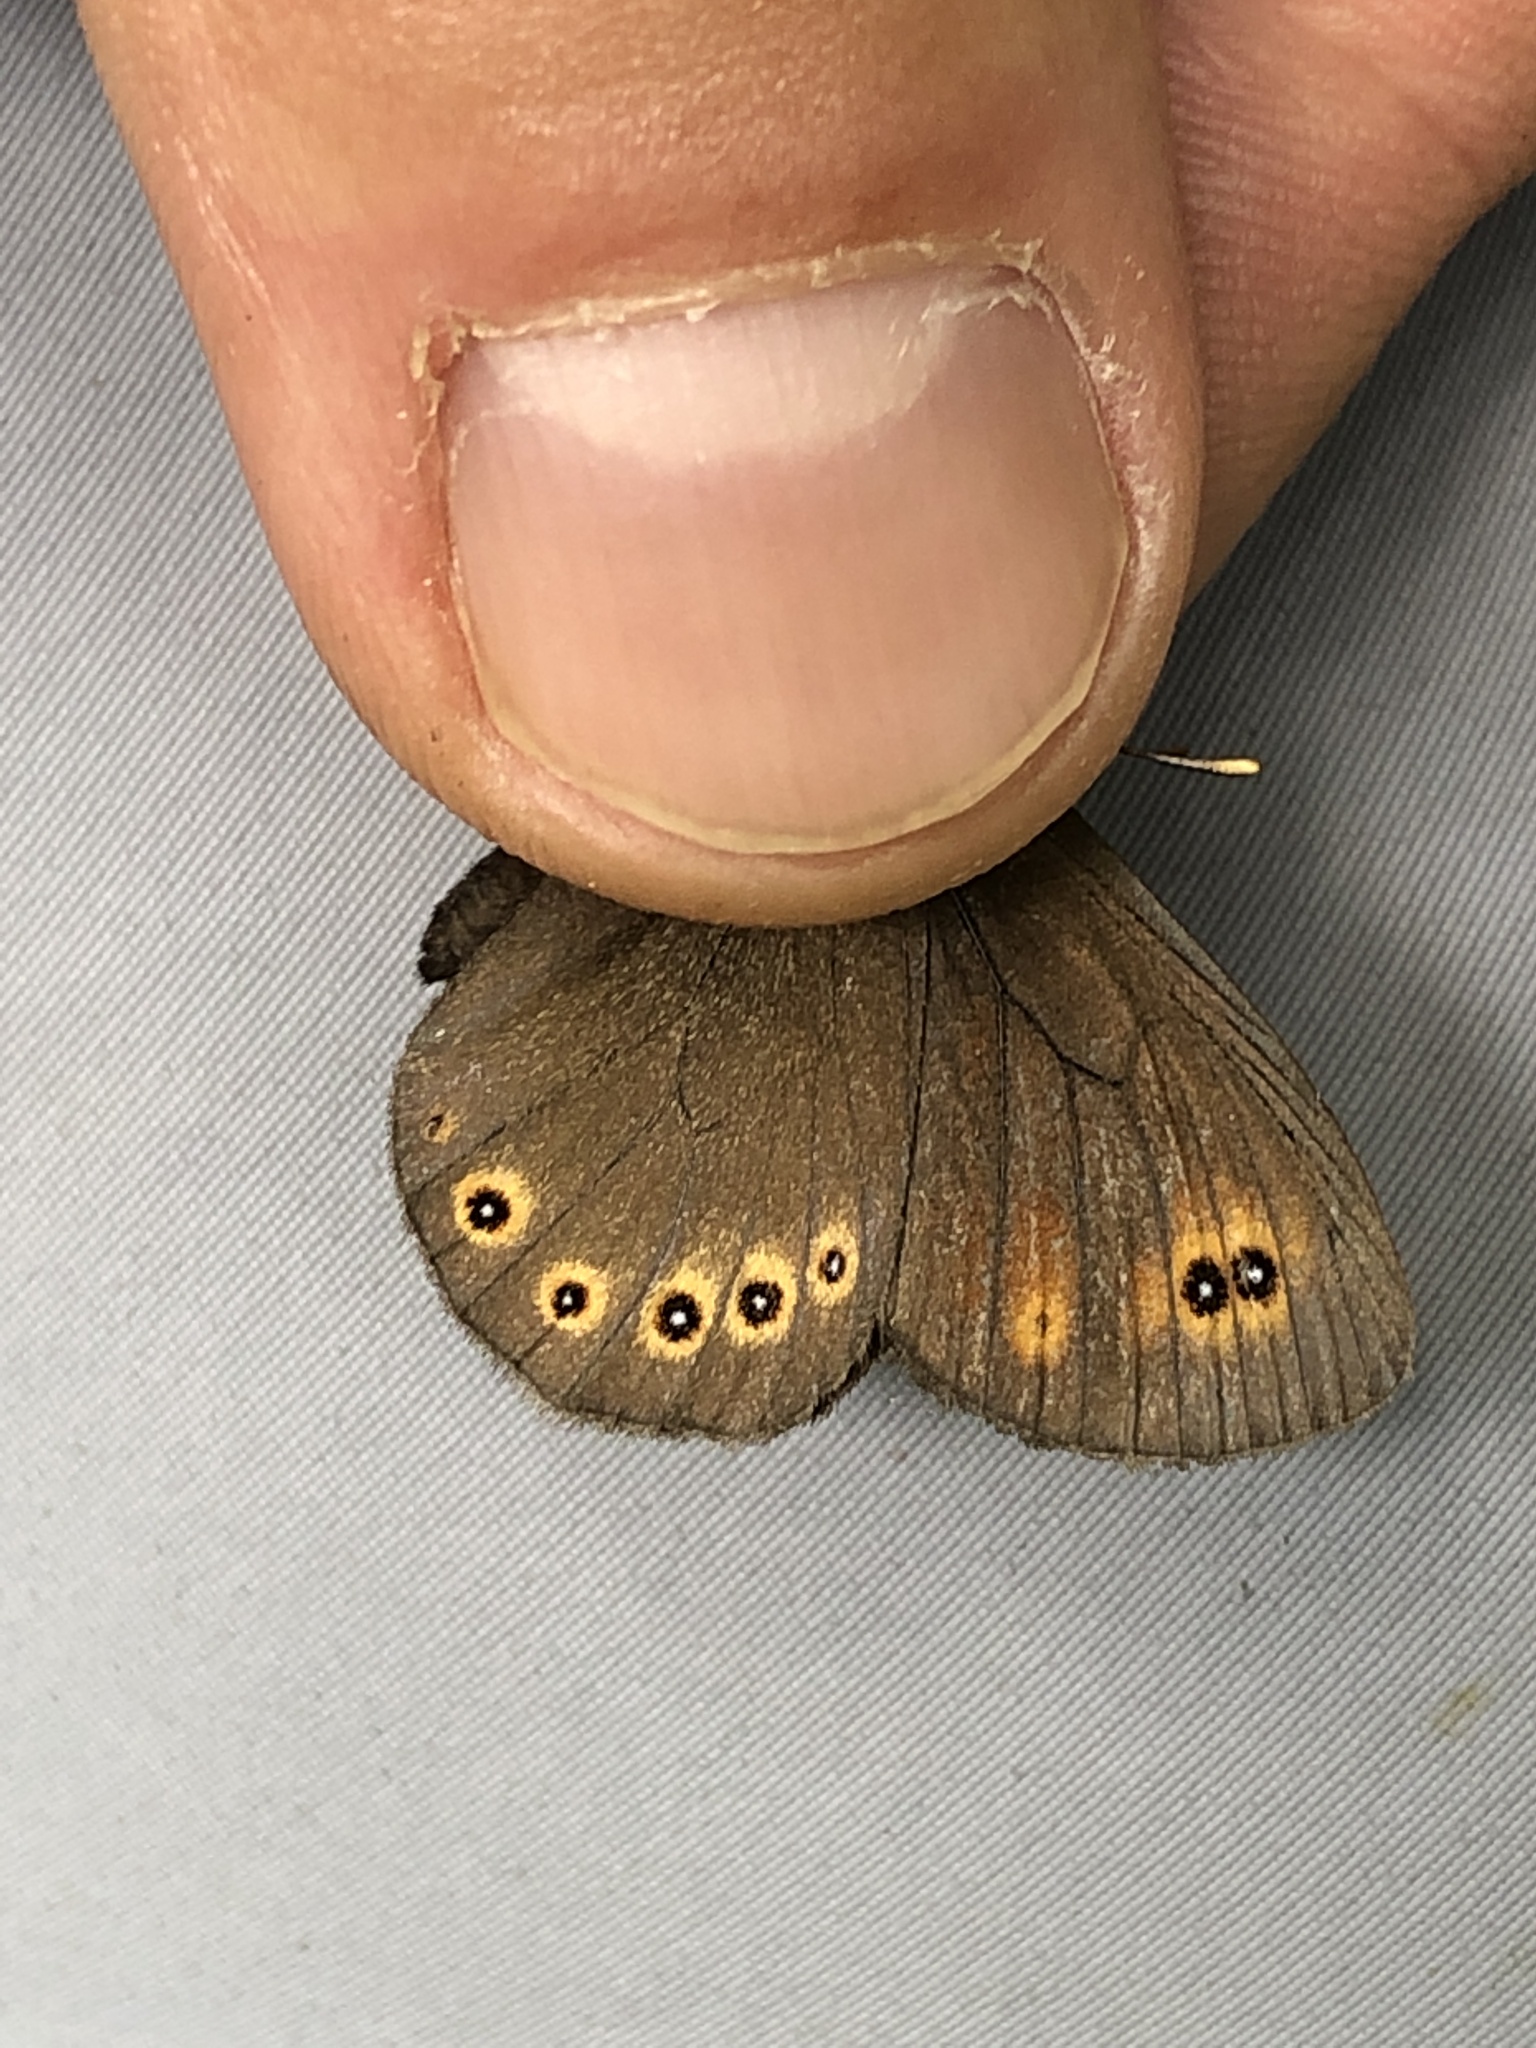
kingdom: Animalia
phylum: Arthropoda
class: Insecta
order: Lepidoptera
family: Nymphalidae
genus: Erebia
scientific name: Erebia medusa
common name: Woodland ringlet
